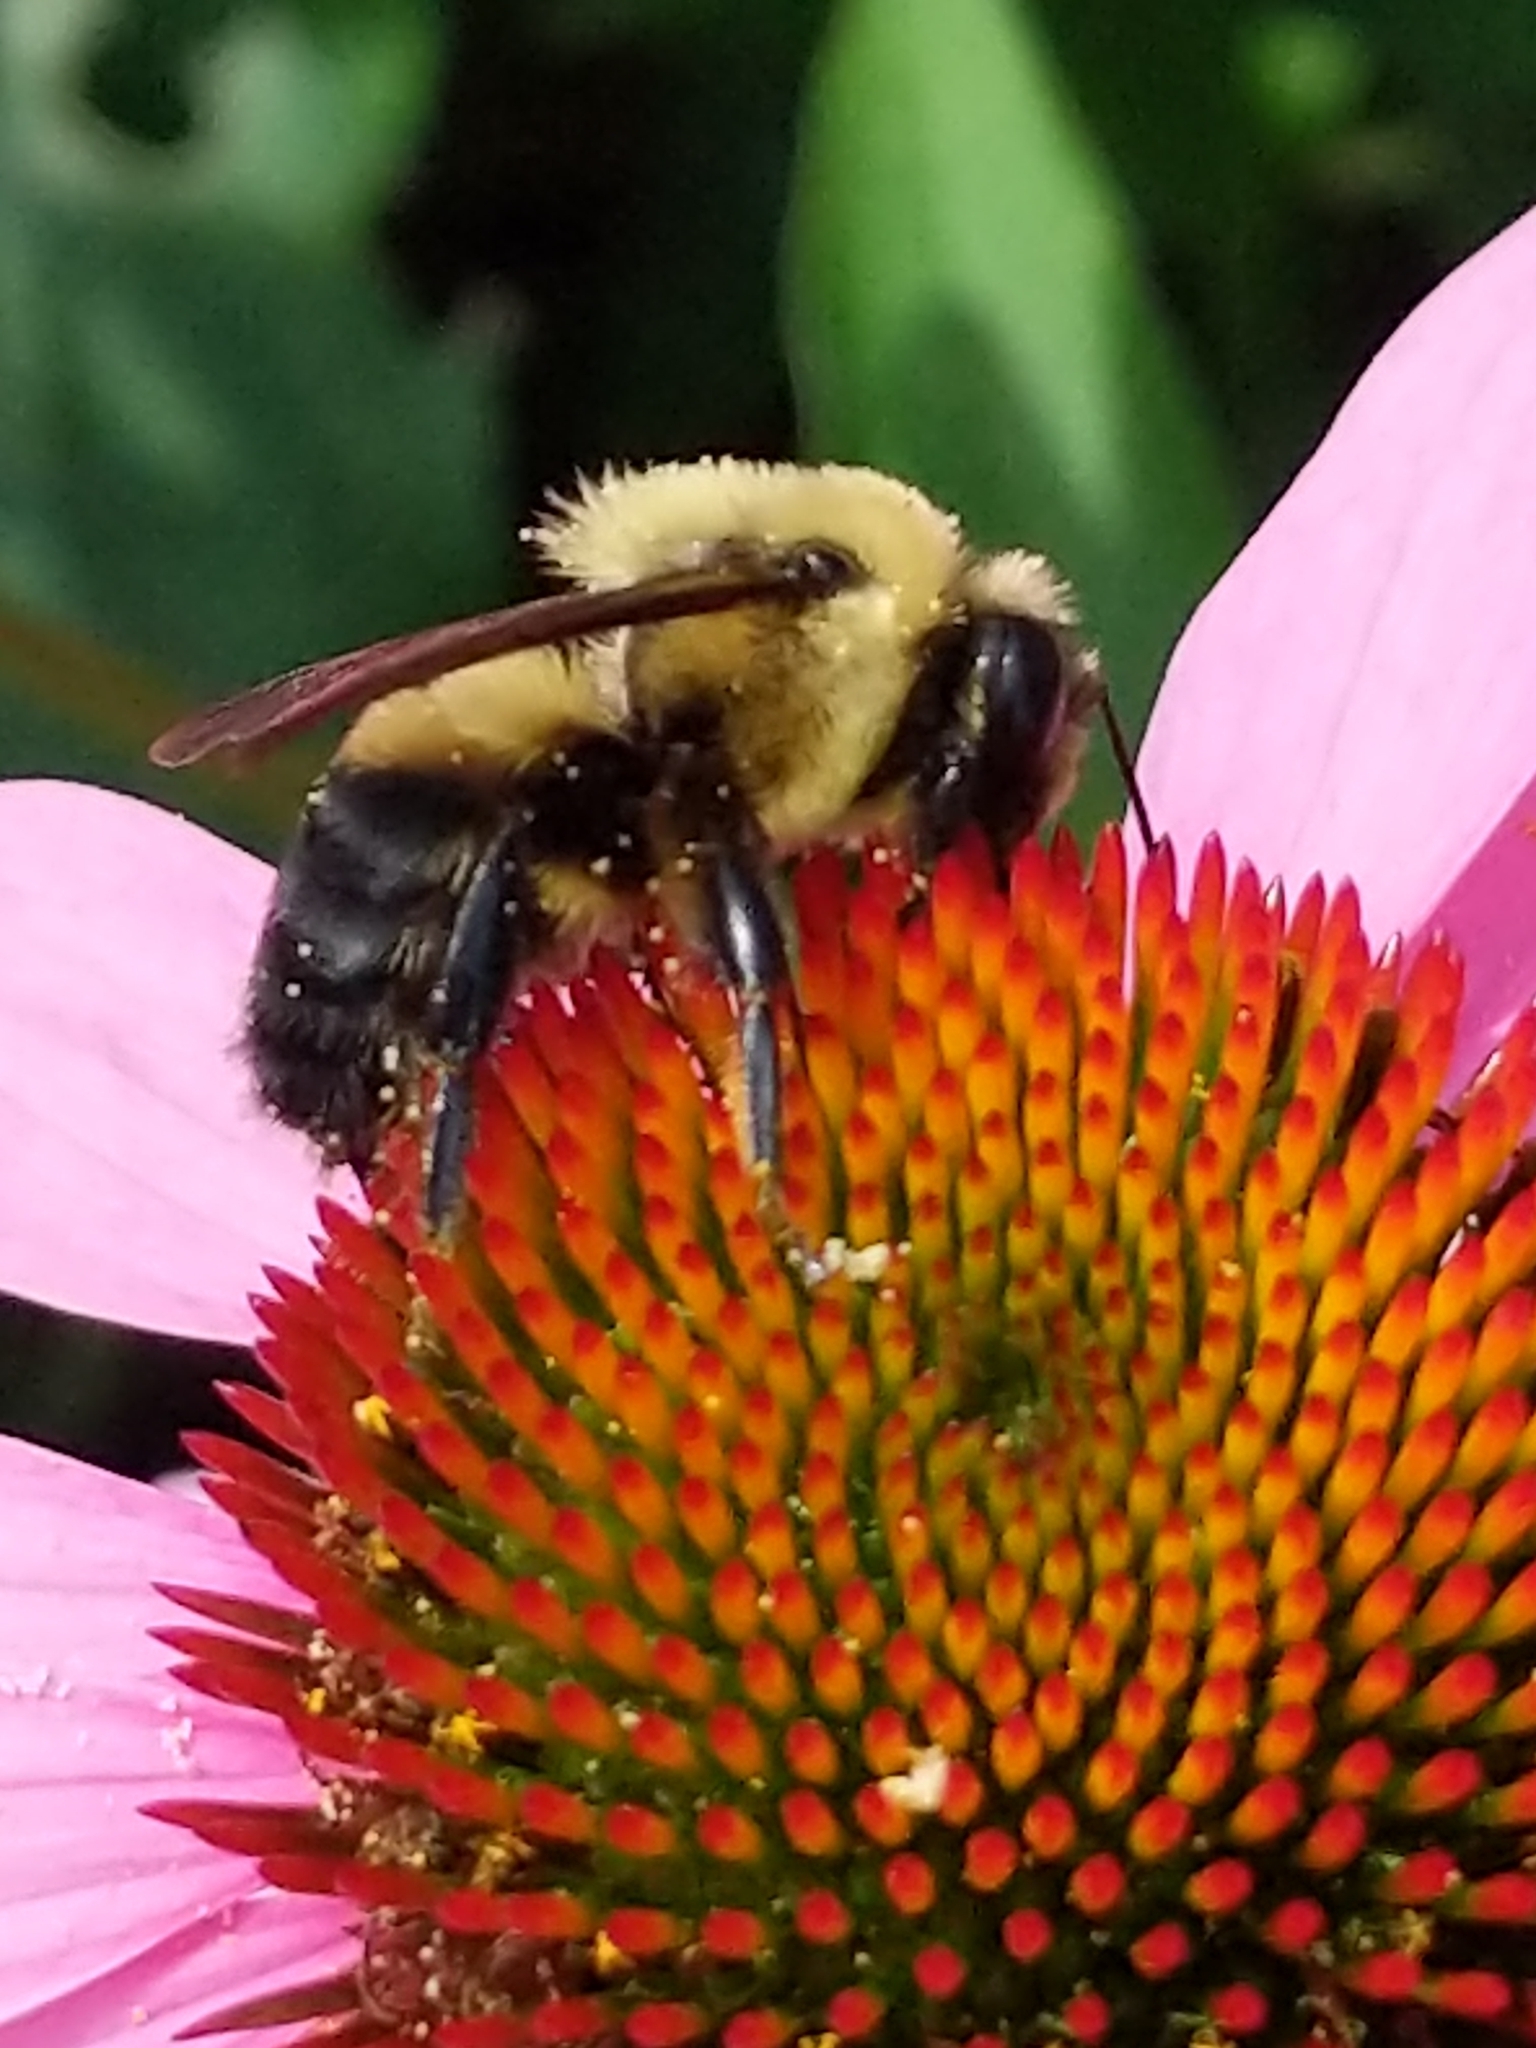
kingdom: Animalia
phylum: Arthropoda
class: Insecta
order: Hymenoptera
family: Apidae
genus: Bombus
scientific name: Bombus griseocollis
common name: Brown-belted bumble bee
